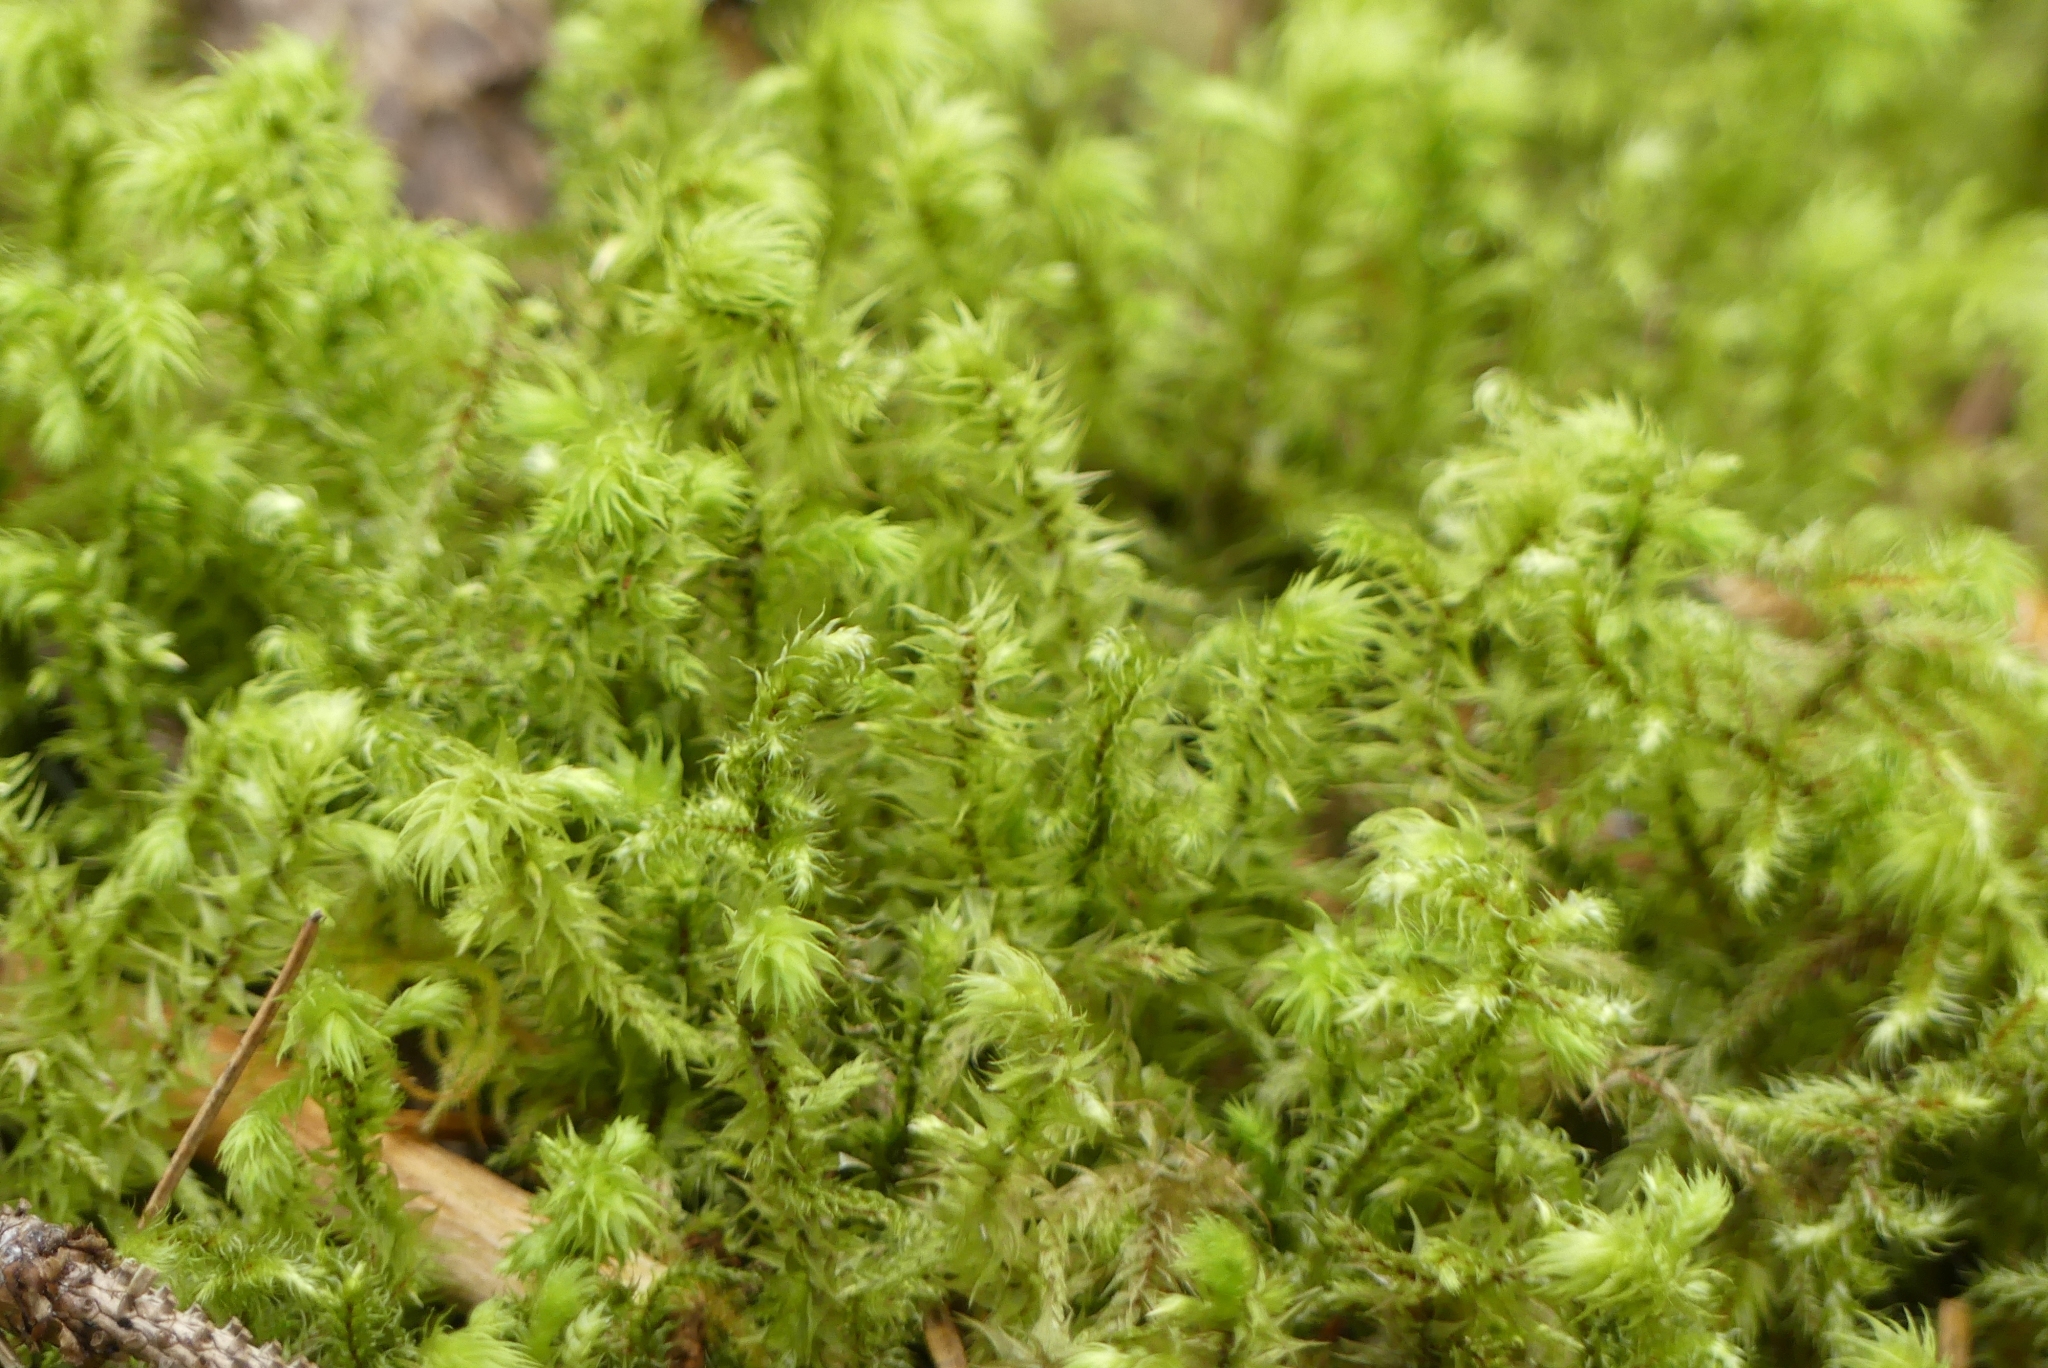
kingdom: Plantae
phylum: Bryophyta
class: Bryopsida
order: Hypnales
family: Hylocomiaceae
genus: Hylocomiadelphus
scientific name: Hylocomiadelphus triquetrus
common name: Rough goose neck moss
